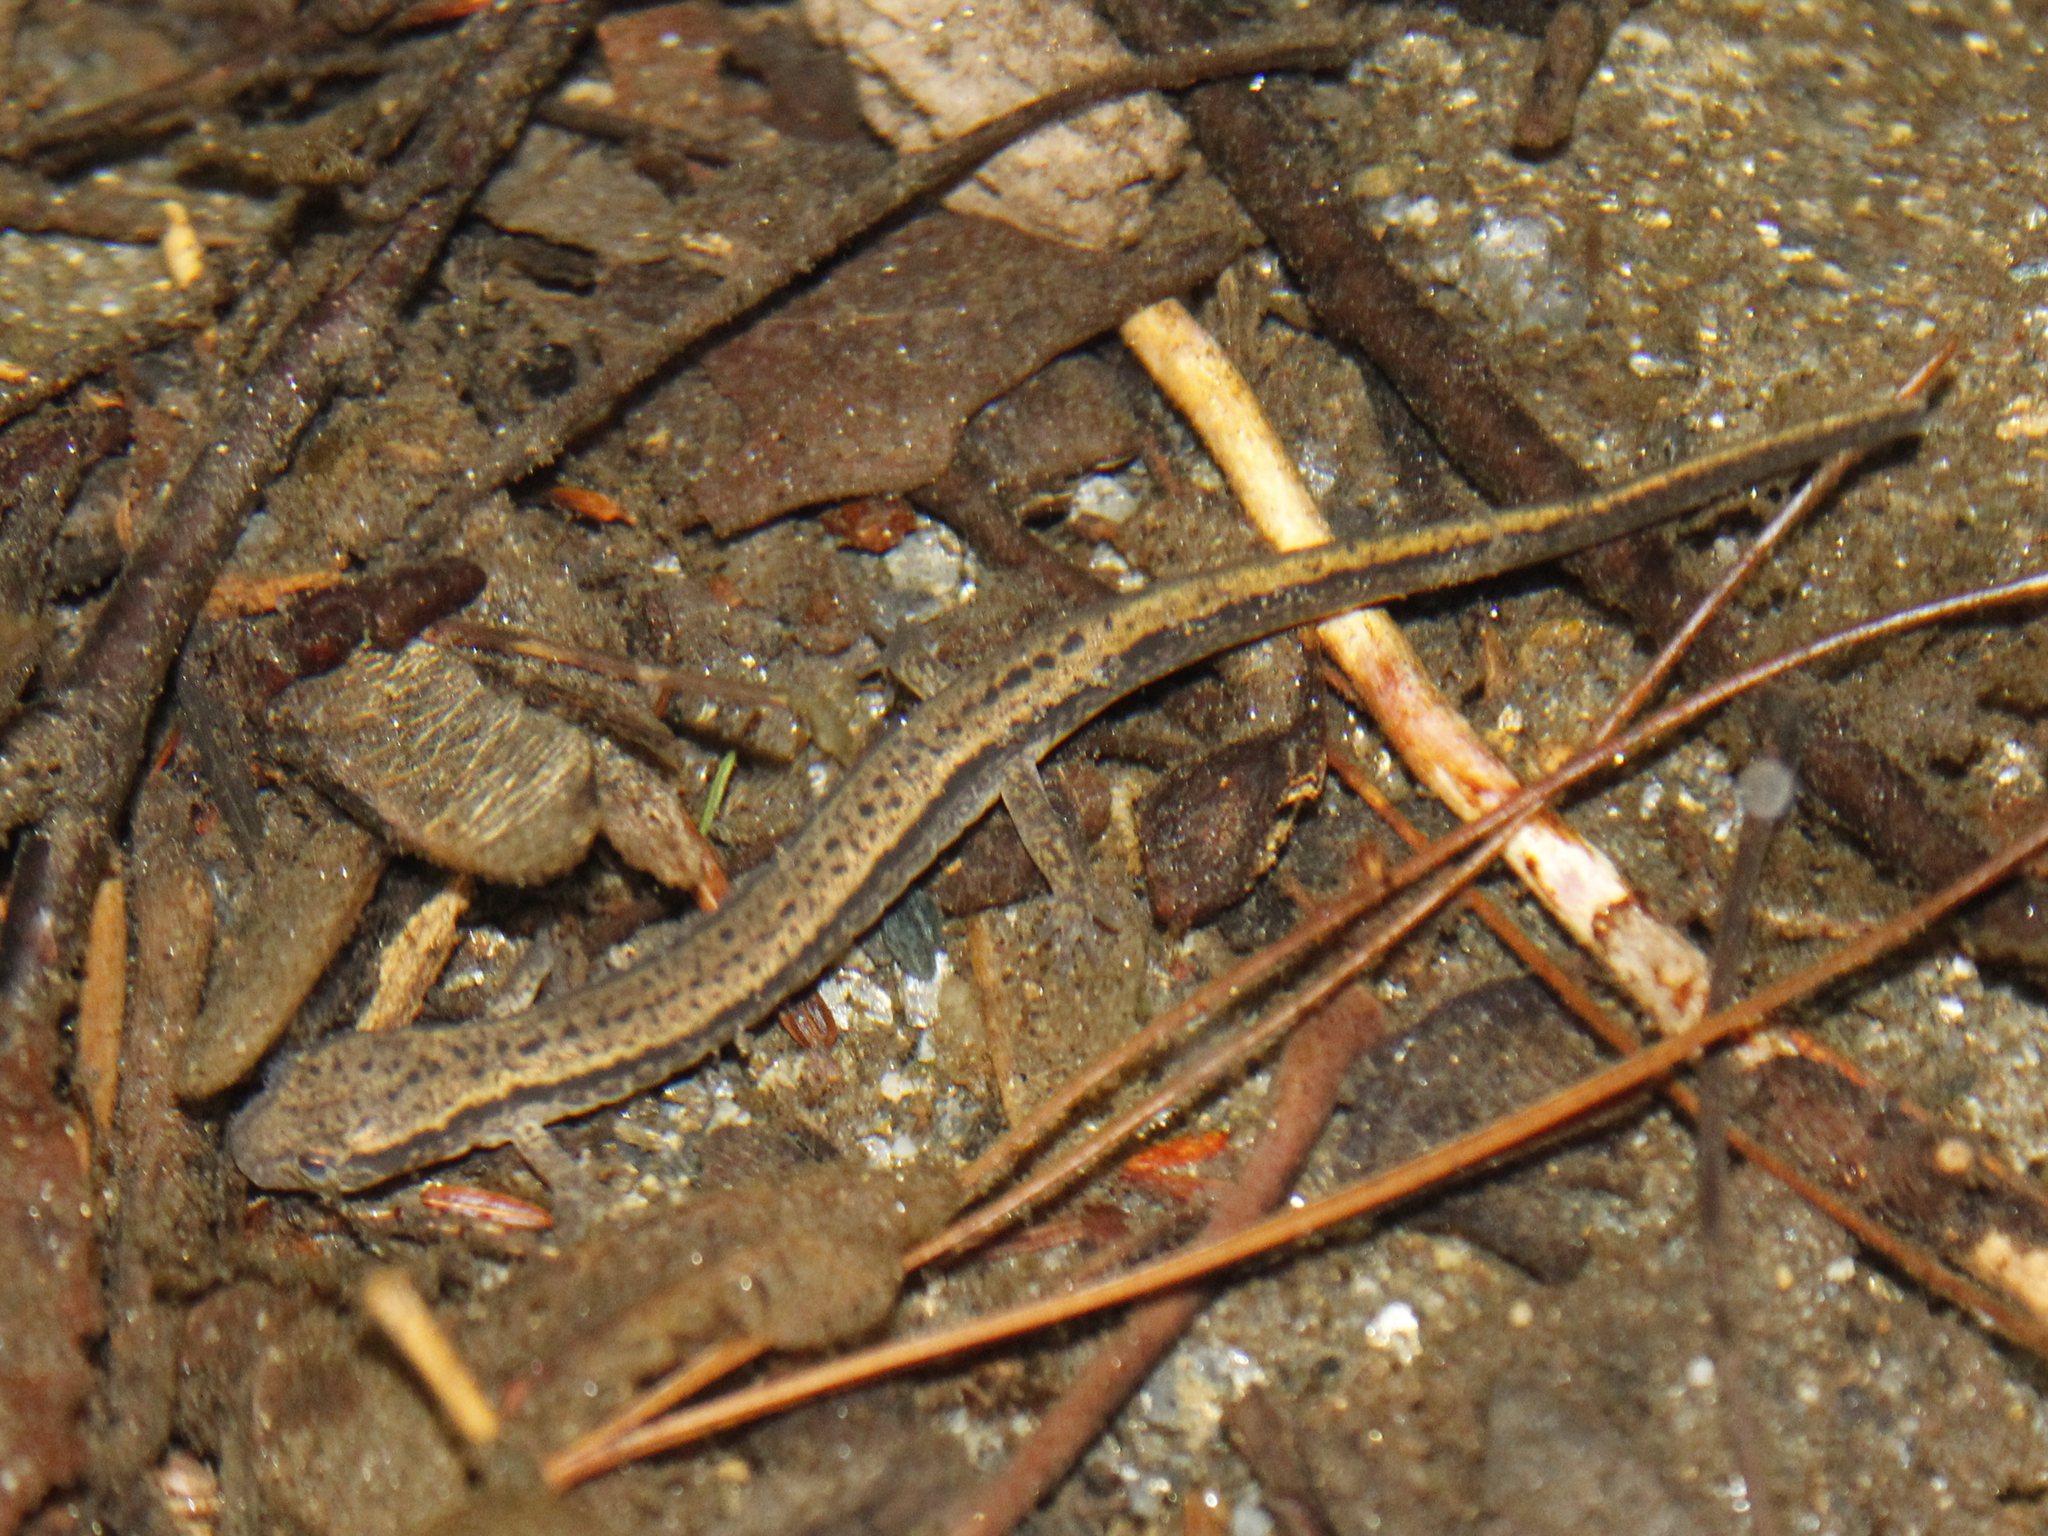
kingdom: Animalia
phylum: Chordata
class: Amphibia
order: Caudata
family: Plethodontidae
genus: Eurycea
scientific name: Eurycea bislineata
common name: Northern two-lined salamander
